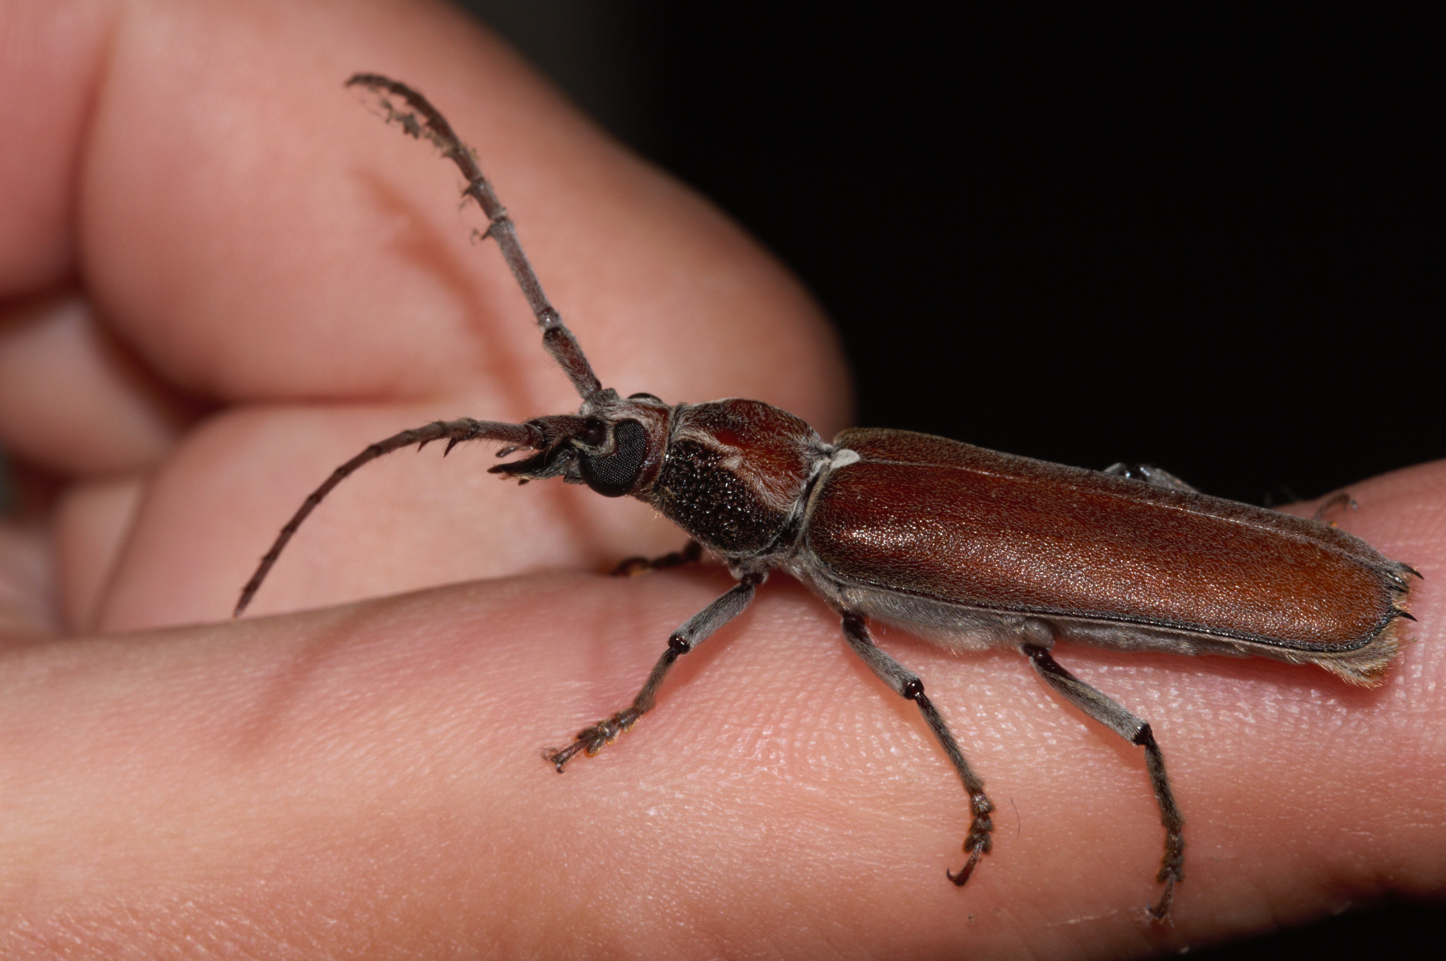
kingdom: Animalia
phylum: Arthropoda
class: Insecta
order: Coleoptera
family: Cerambycidae
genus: Praxithea
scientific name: Praxithea seabrai
